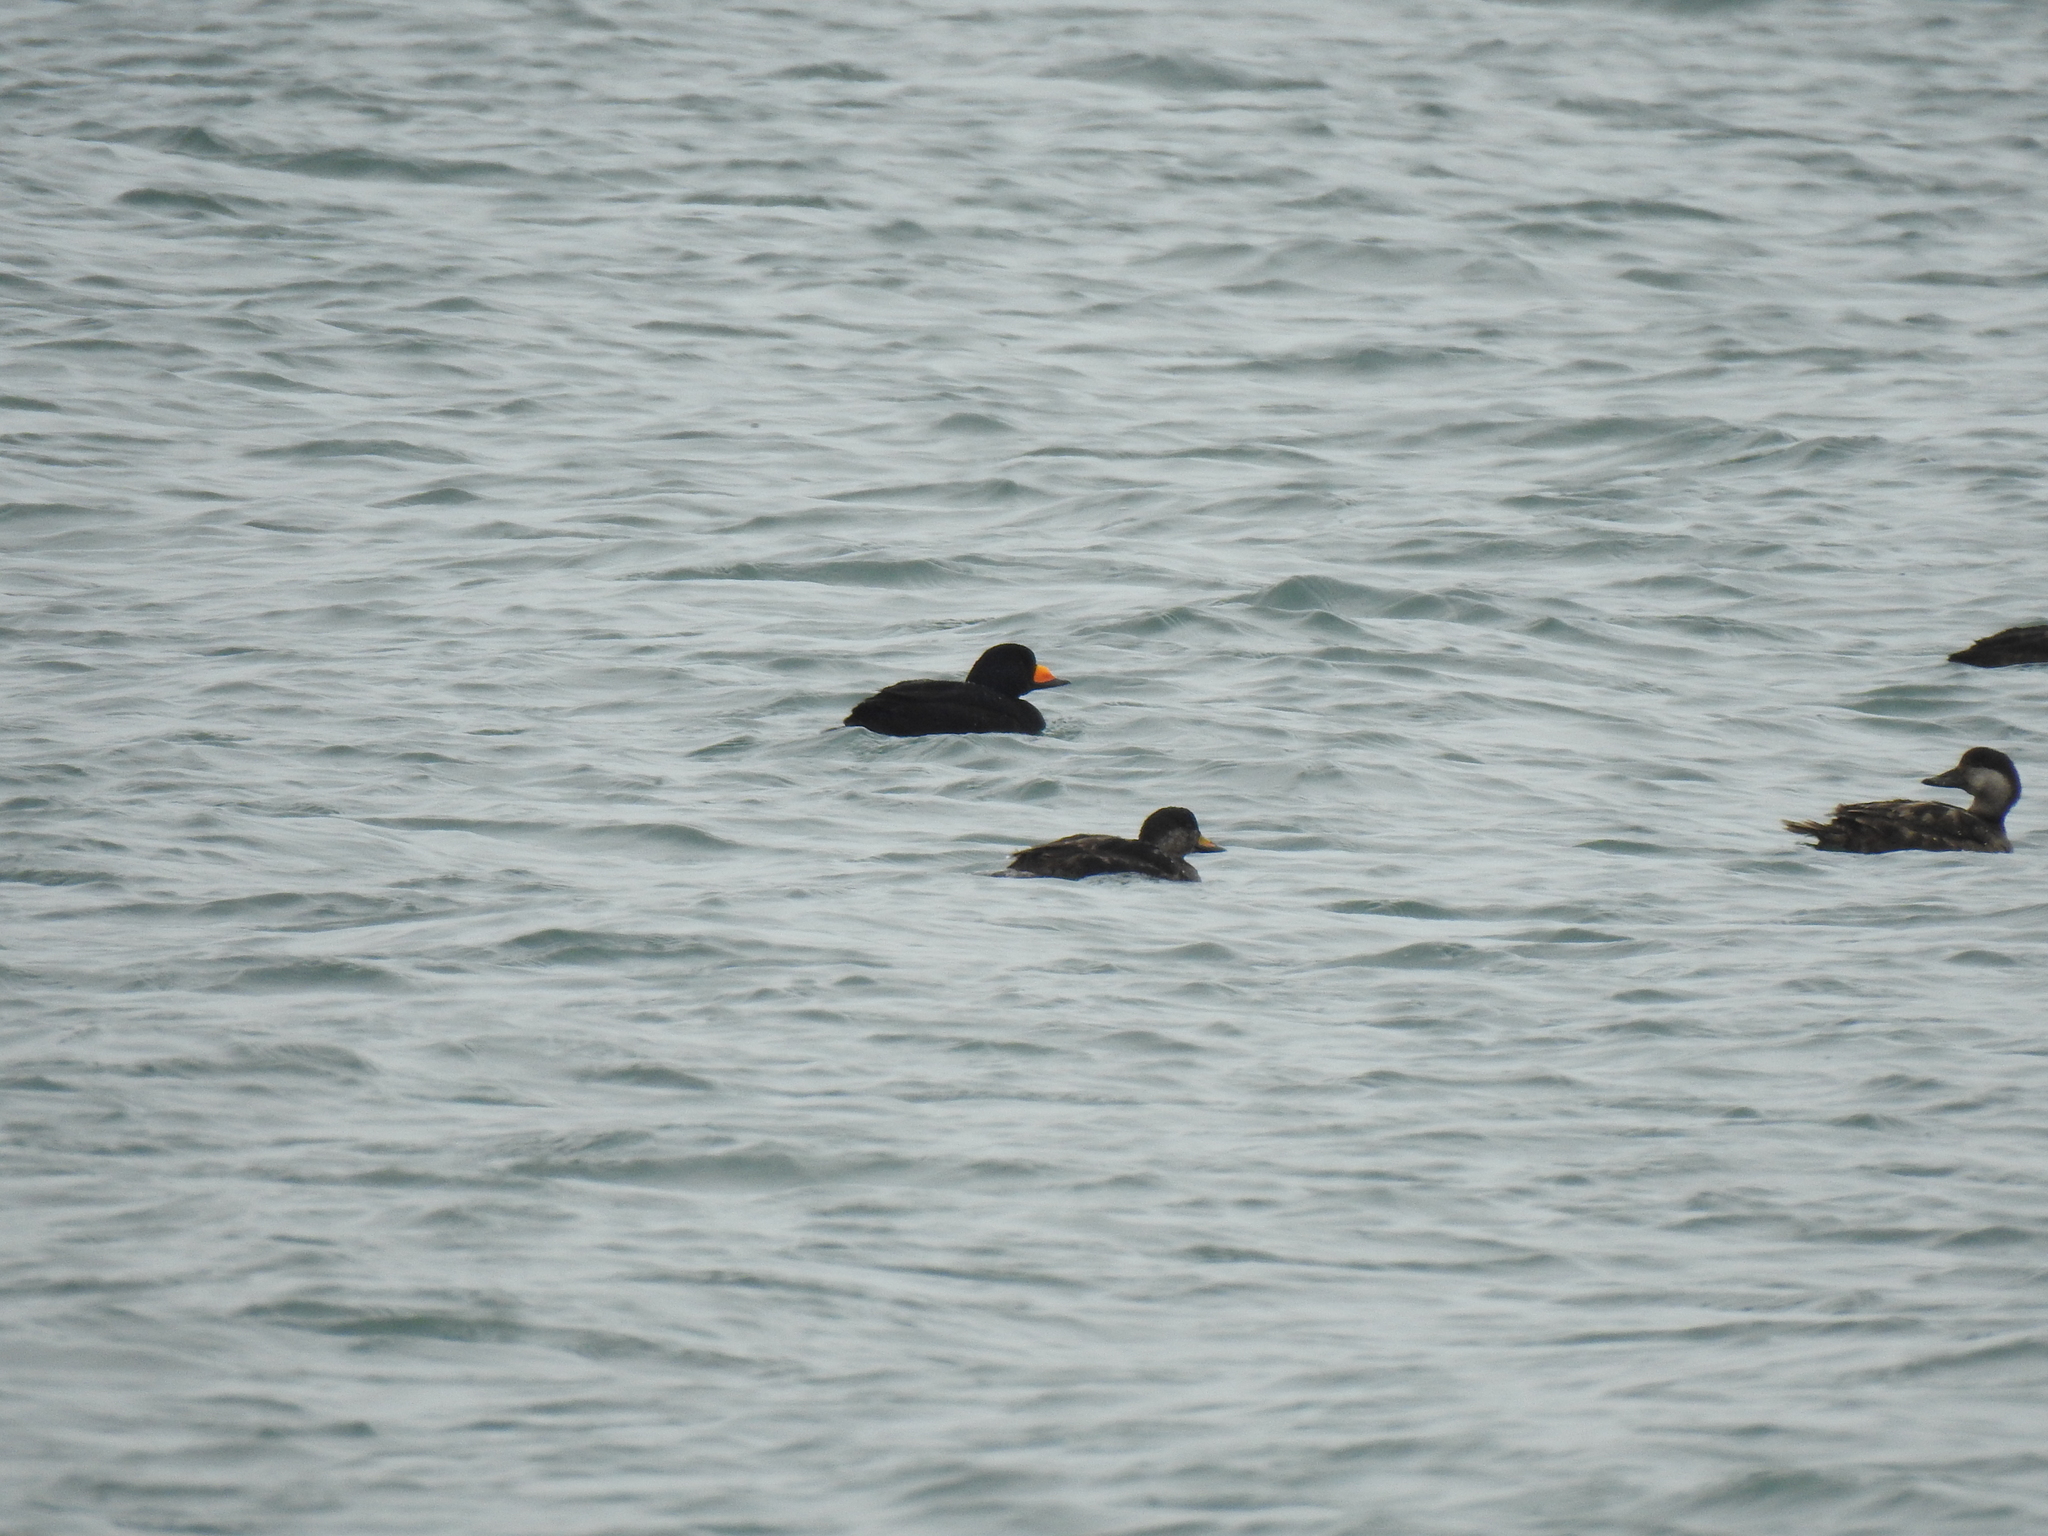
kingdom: Animalia
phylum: Chordata
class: Aves
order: Anseriformes
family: Anatidae
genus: Melanitta
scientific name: Melanitta americana
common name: Black scoter
